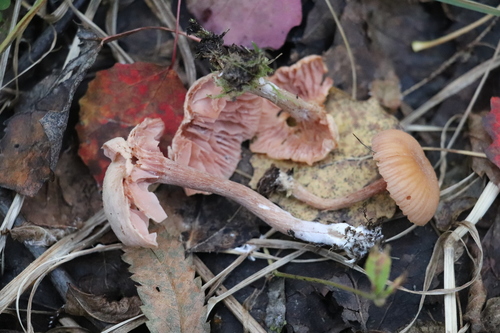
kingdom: Fungi
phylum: Basidiomycota
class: Agaricomycetes
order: Agaricales
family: Hydnangiaceae
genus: Laccaria
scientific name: Laccaria proxima
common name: Scurfy deceiver
